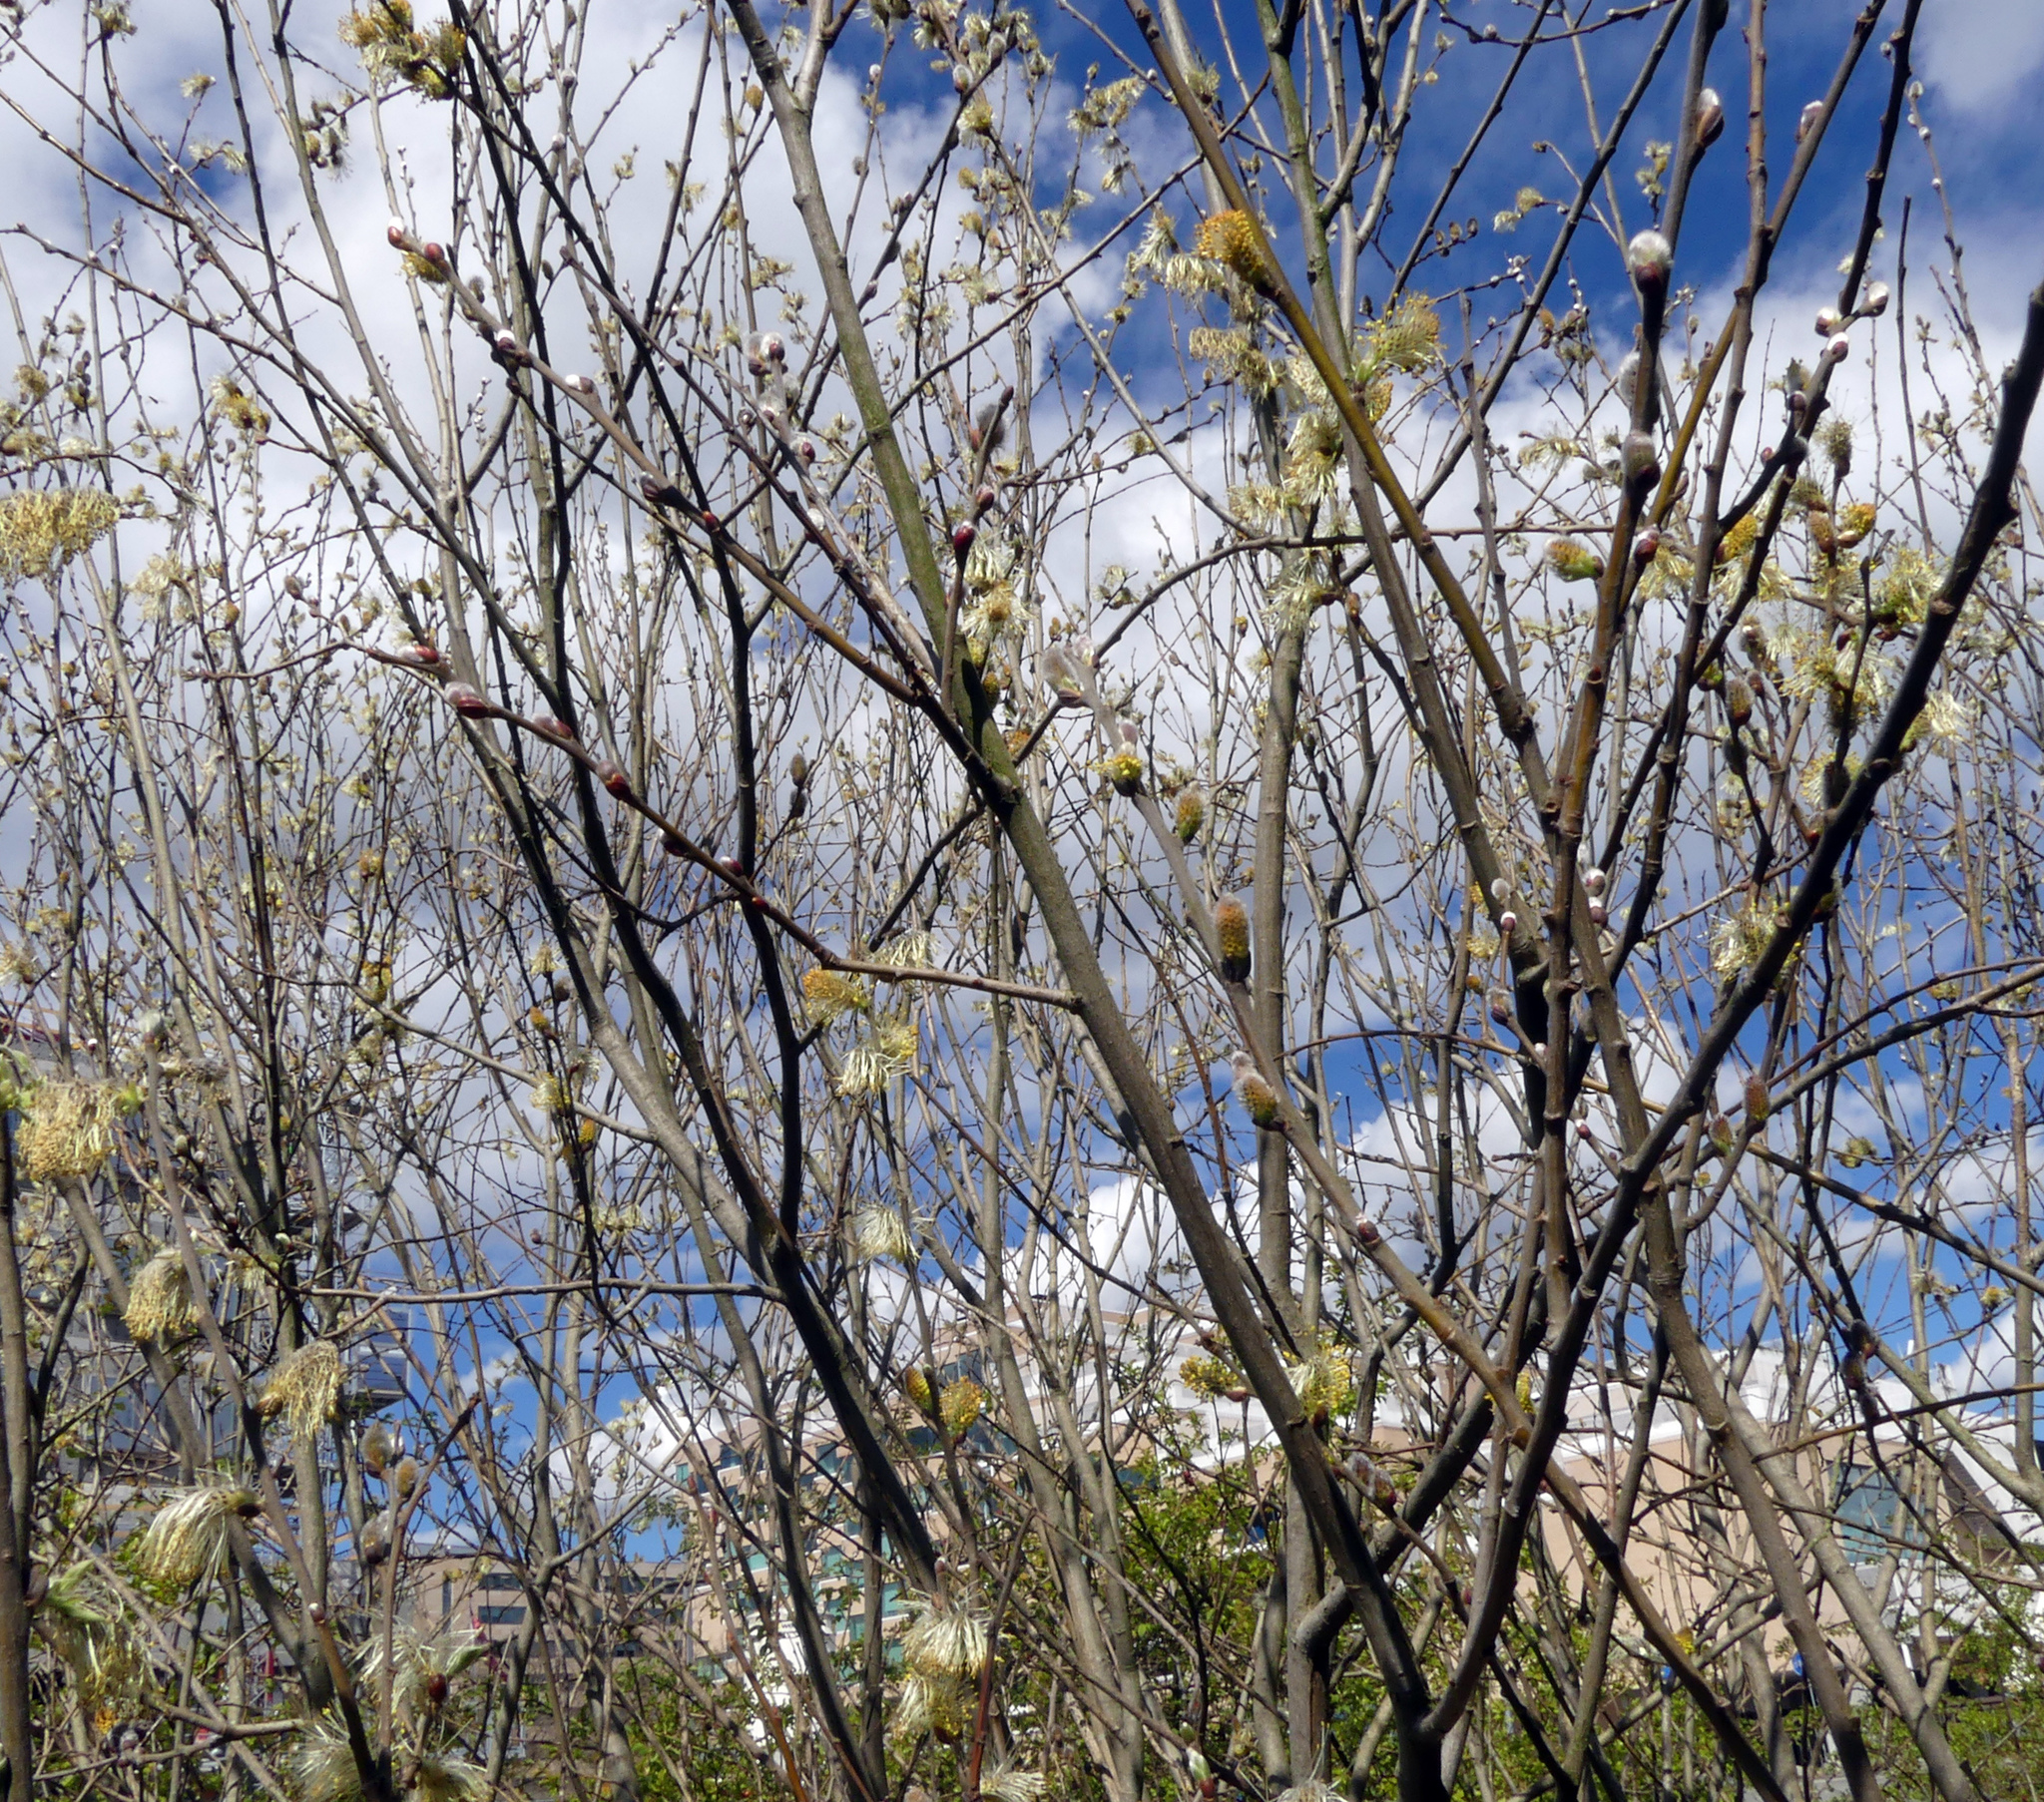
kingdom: Plantae
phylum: Tracheophyta
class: Magnoliopsida
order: Malpighiales
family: Salicaceae
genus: Salix
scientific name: Salix caprea
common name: Goat willow
